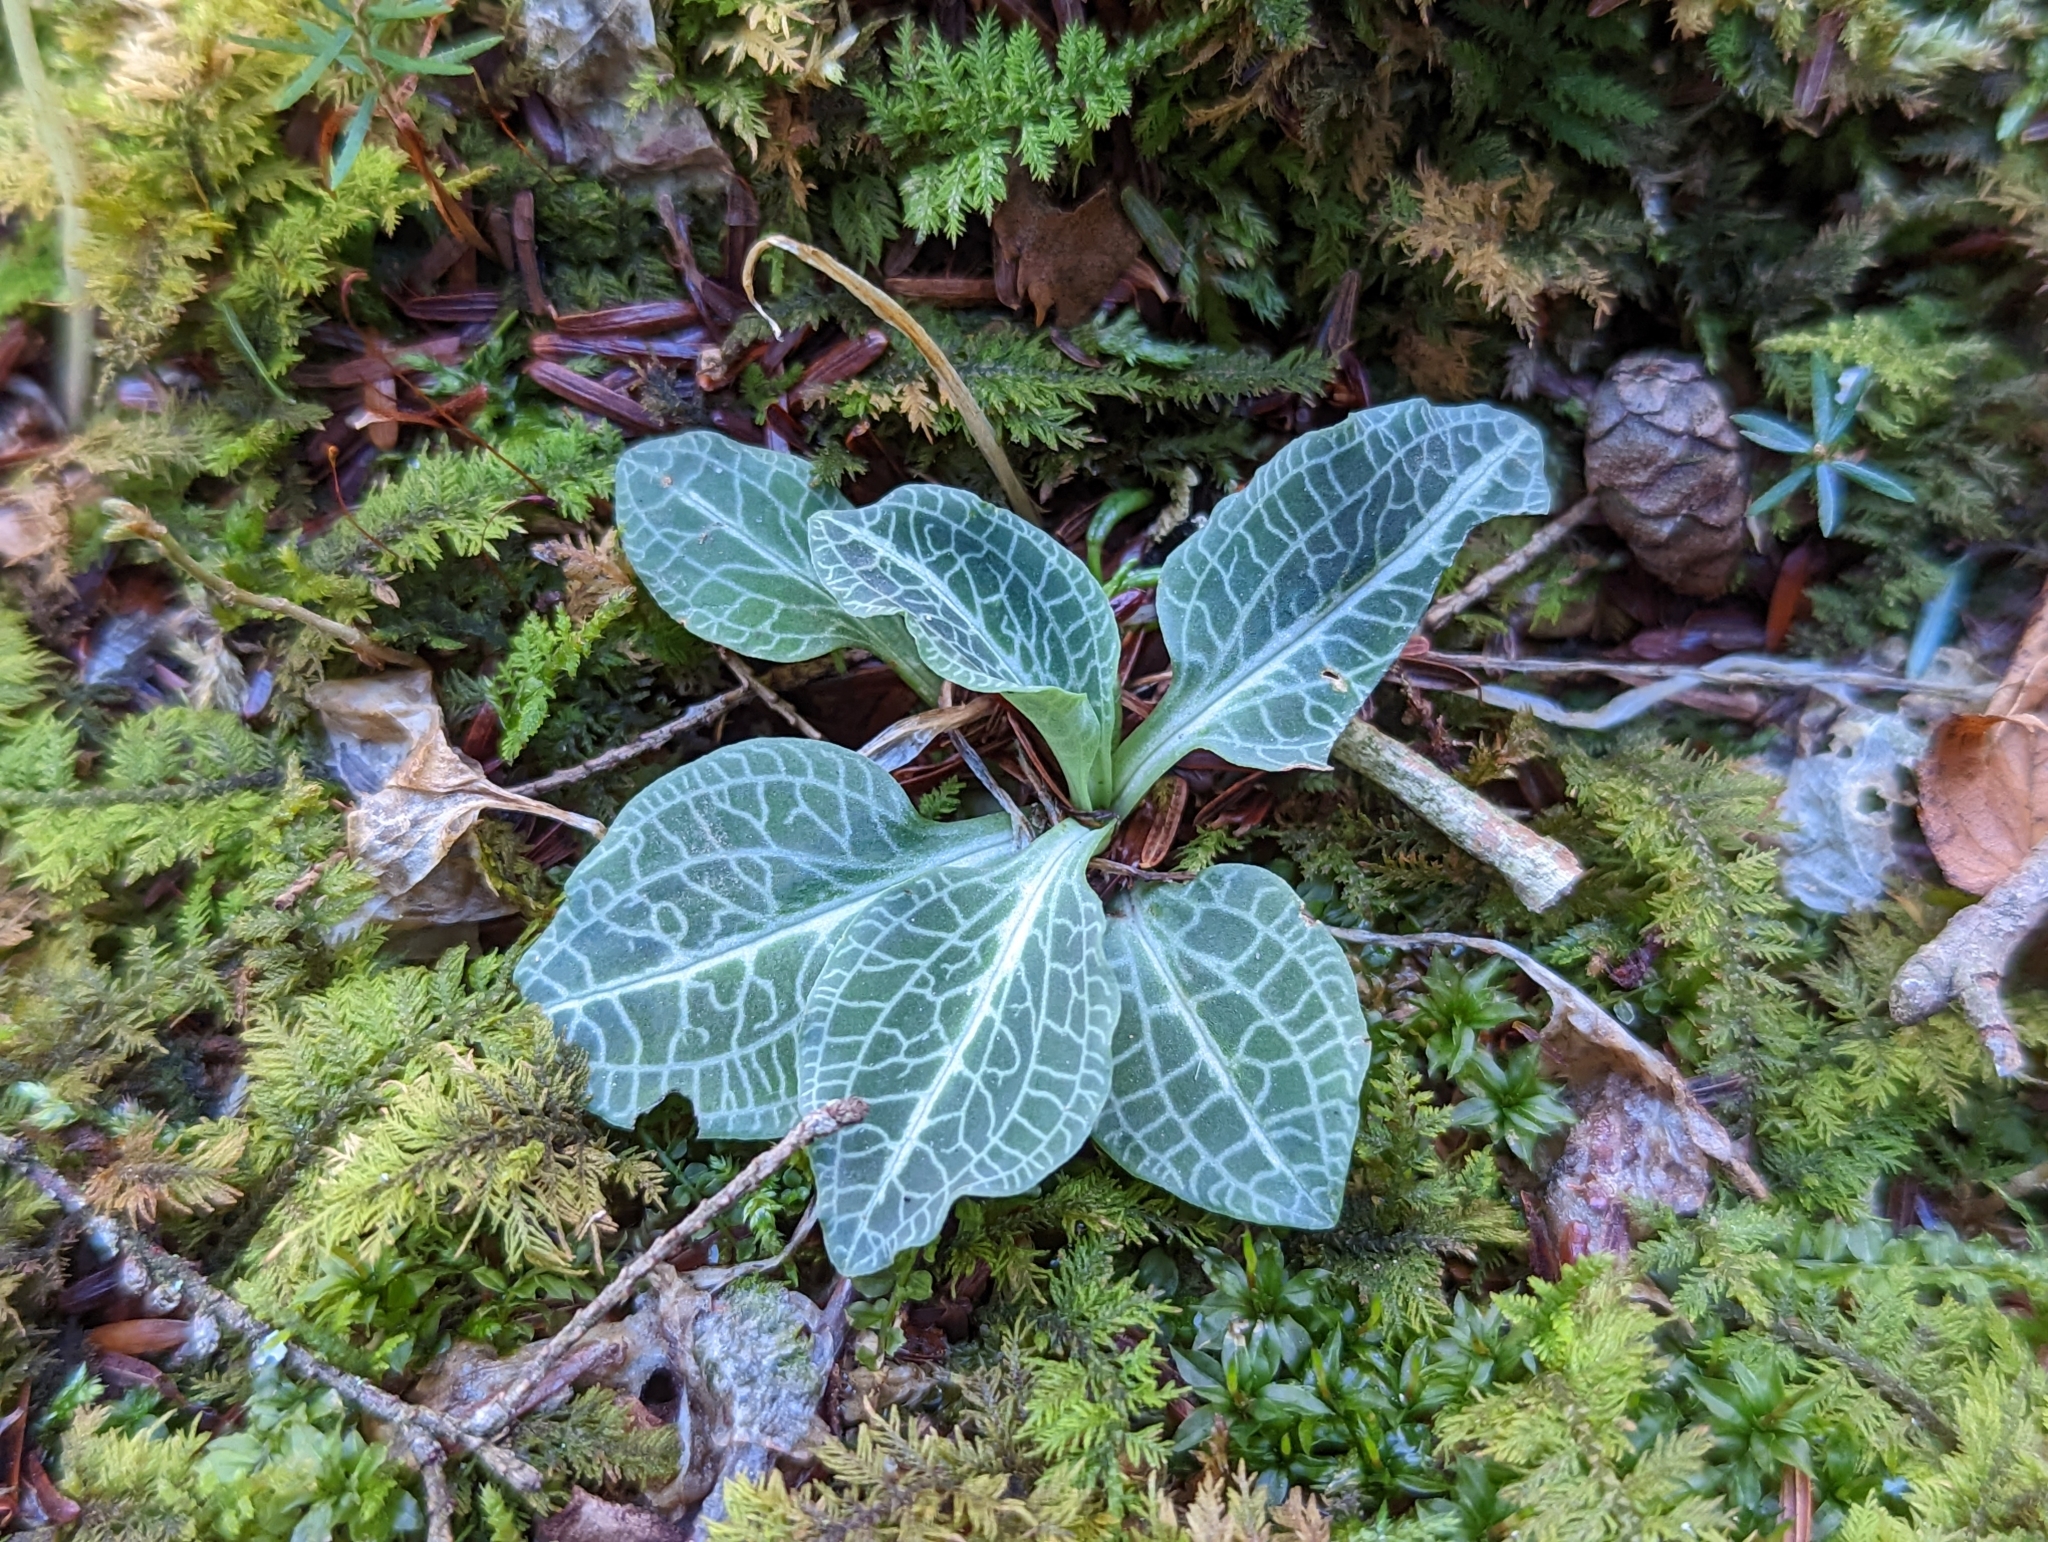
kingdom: Plantae
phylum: Tracheophyta
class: Liliopsida
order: Asparagales
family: Orchidaceae
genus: Goodyera
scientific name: Goodyera pubescens
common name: Downy rattlesnake-plantain
